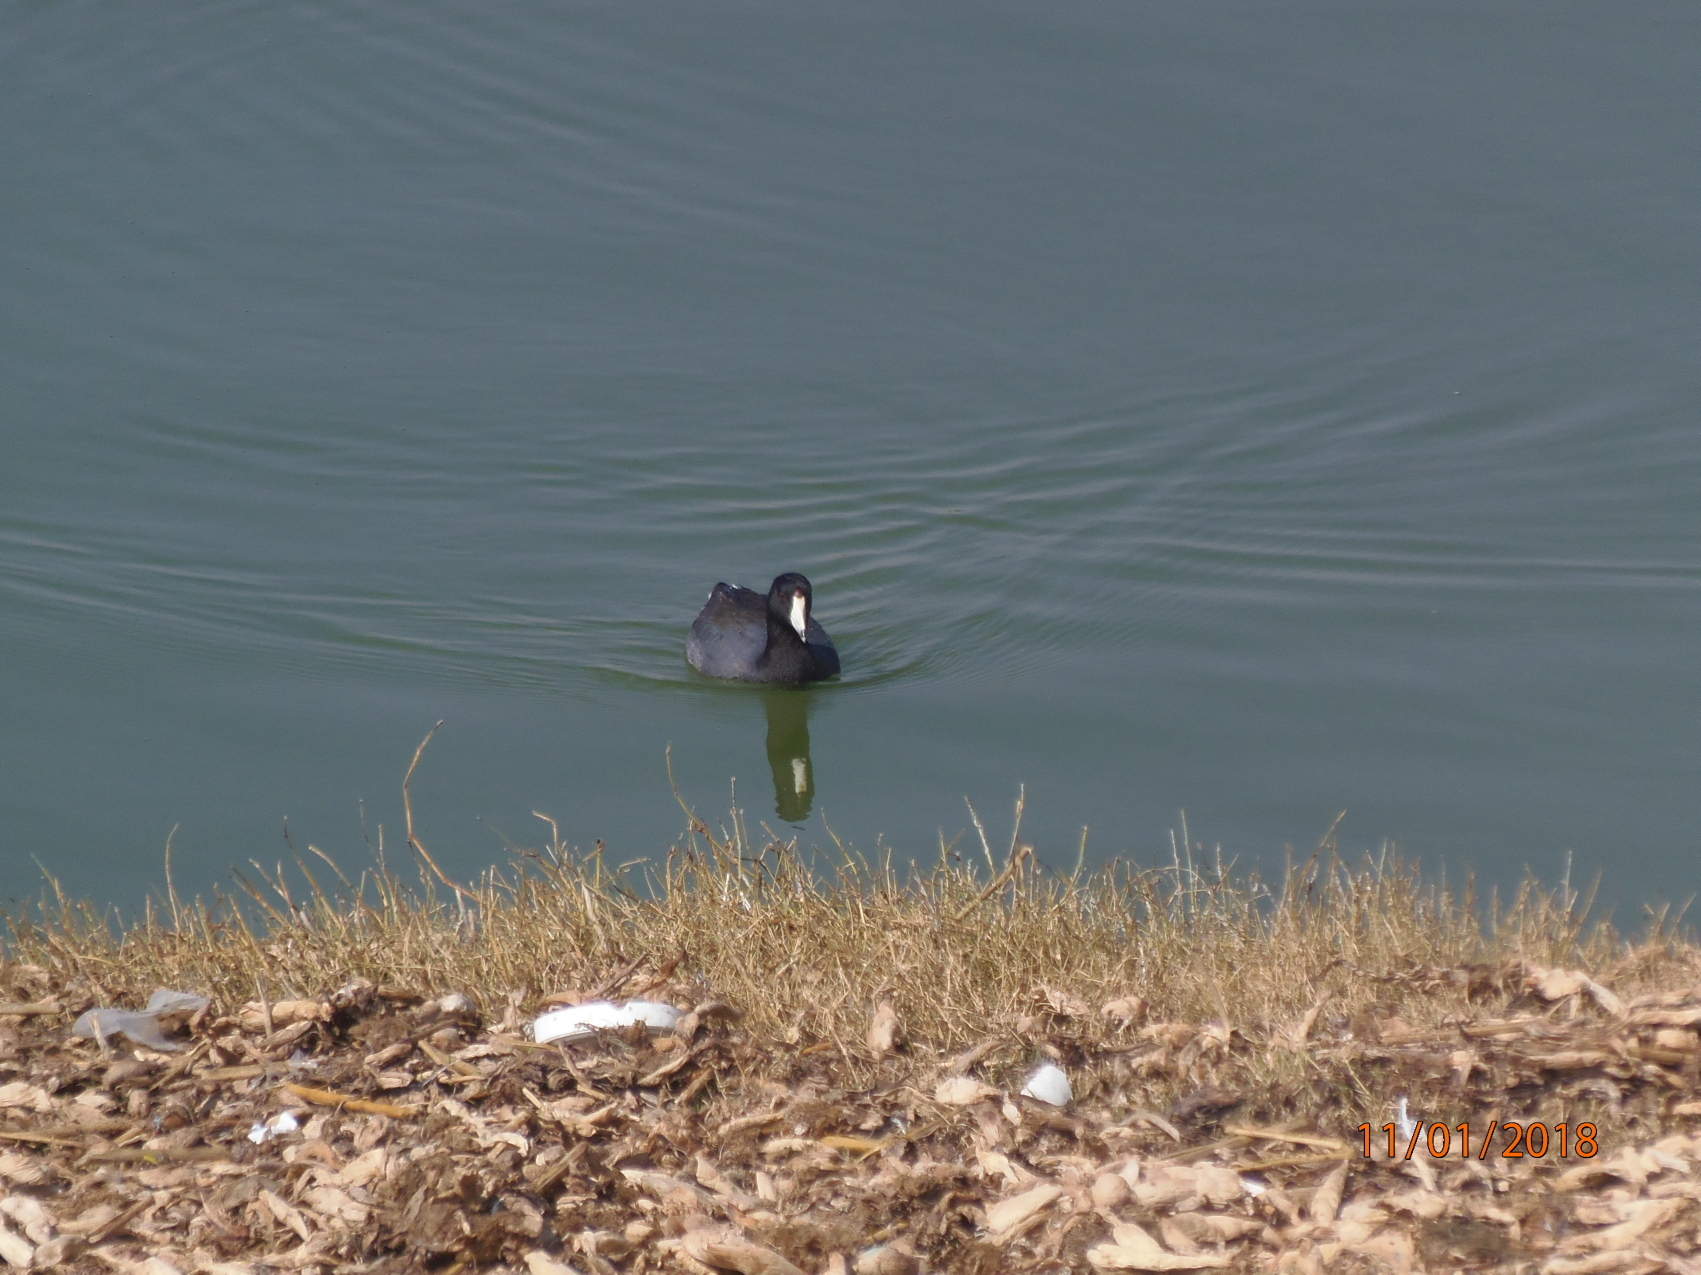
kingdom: Animalia
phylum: Chordata
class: Aves
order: Gruiformes
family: Rallidae
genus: Fulica
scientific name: Fulica americana
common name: American coot
